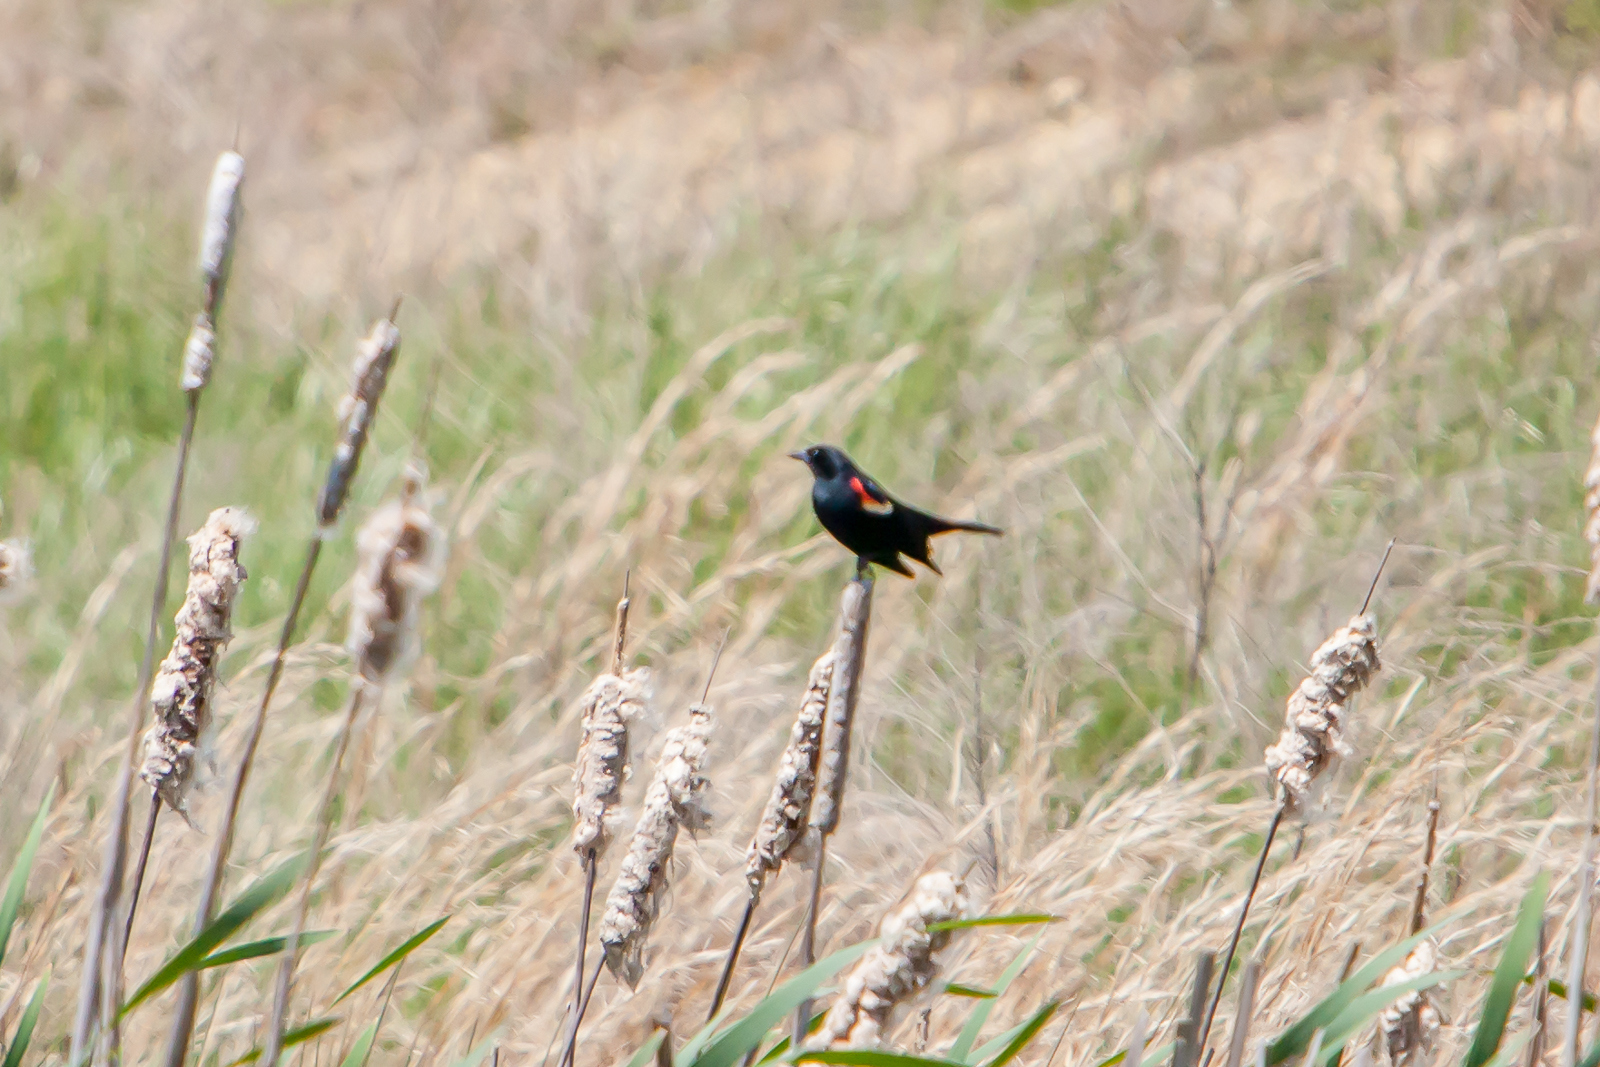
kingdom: Animalia
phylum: Chordata
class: Aves
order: Passeriformes
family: Icteridae
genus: Agelaius
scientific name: Agelaius phoeniceus
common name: Red-winged blackbird
